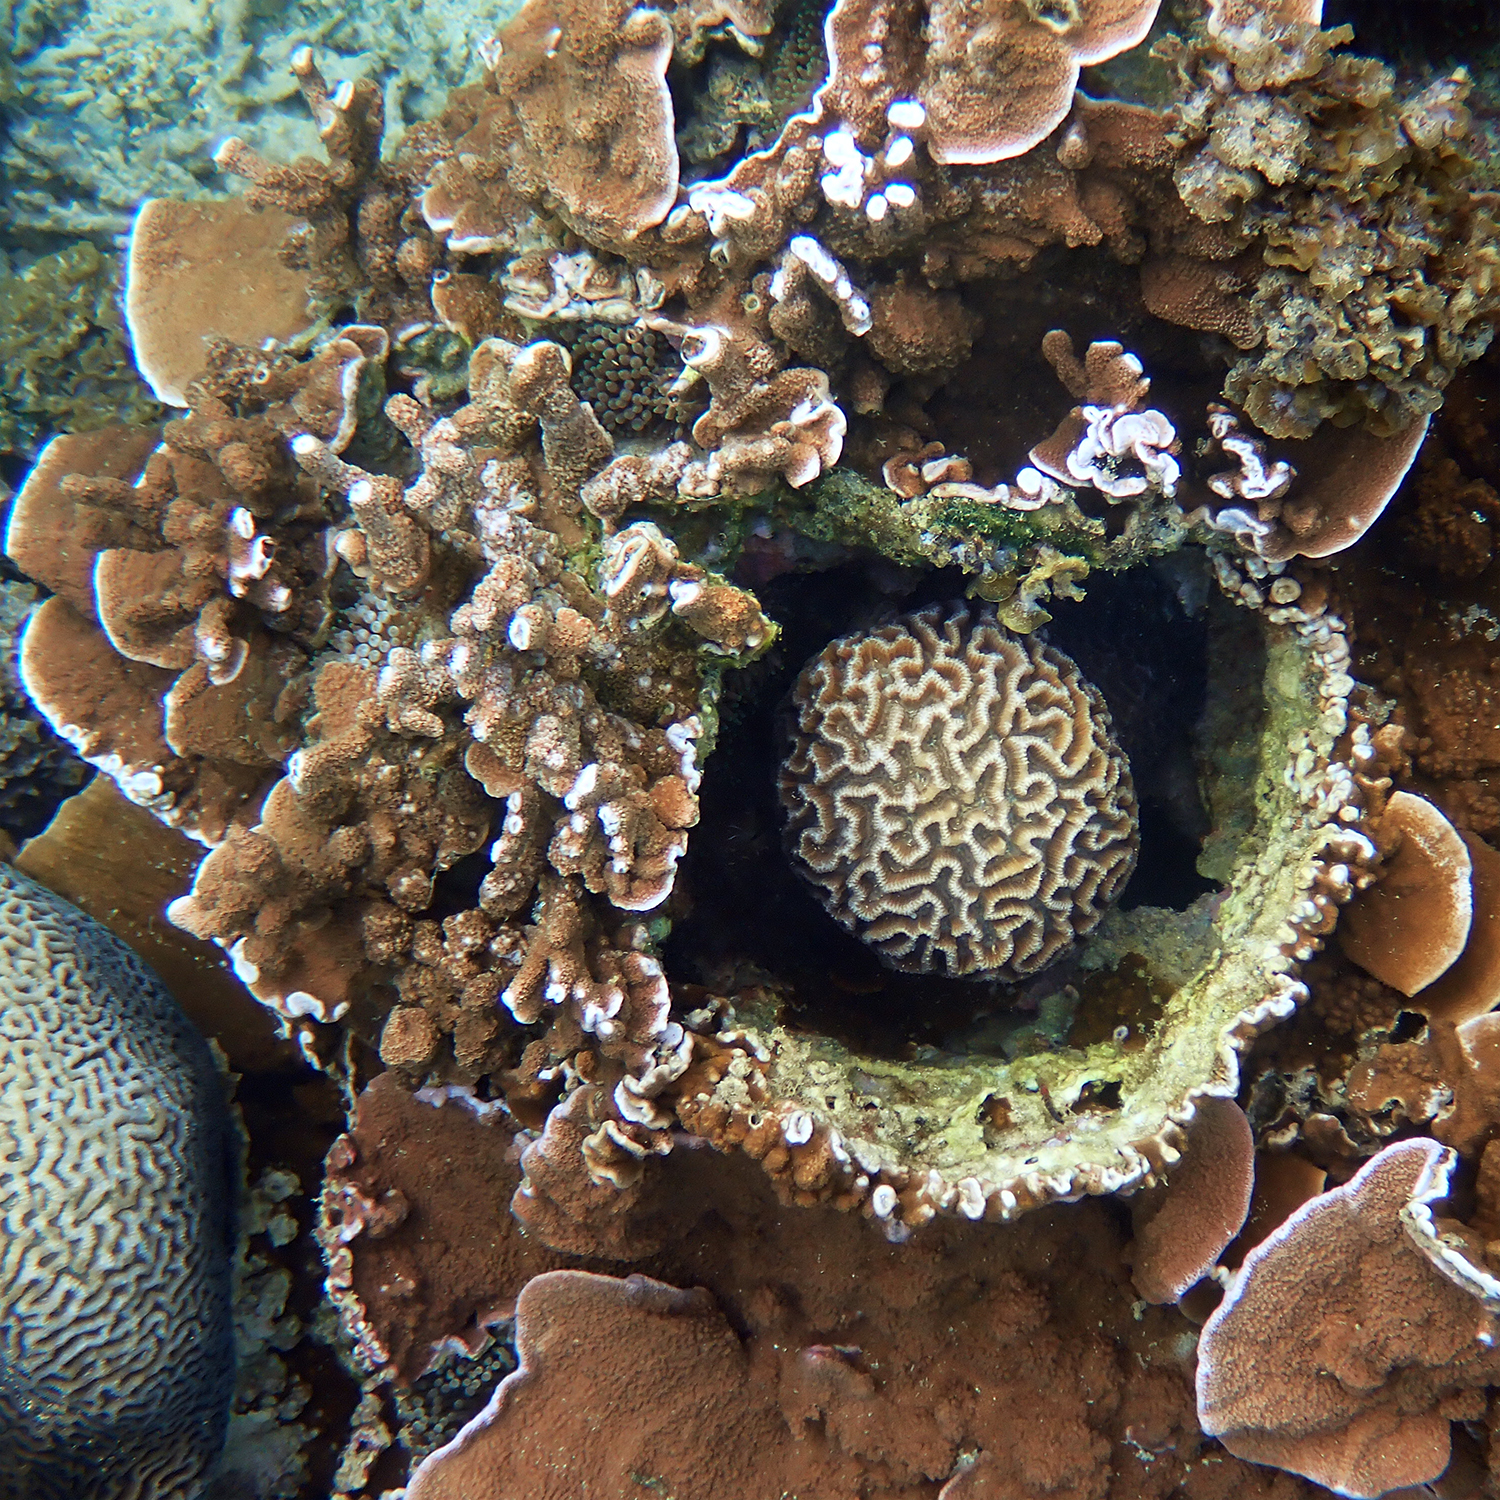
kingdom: Animalia
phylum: Cnidaria
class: Anthozoa
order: Scleractinia
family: Merulinidae
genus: Paragoniastrea
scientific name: Paragoniastrea australensis
